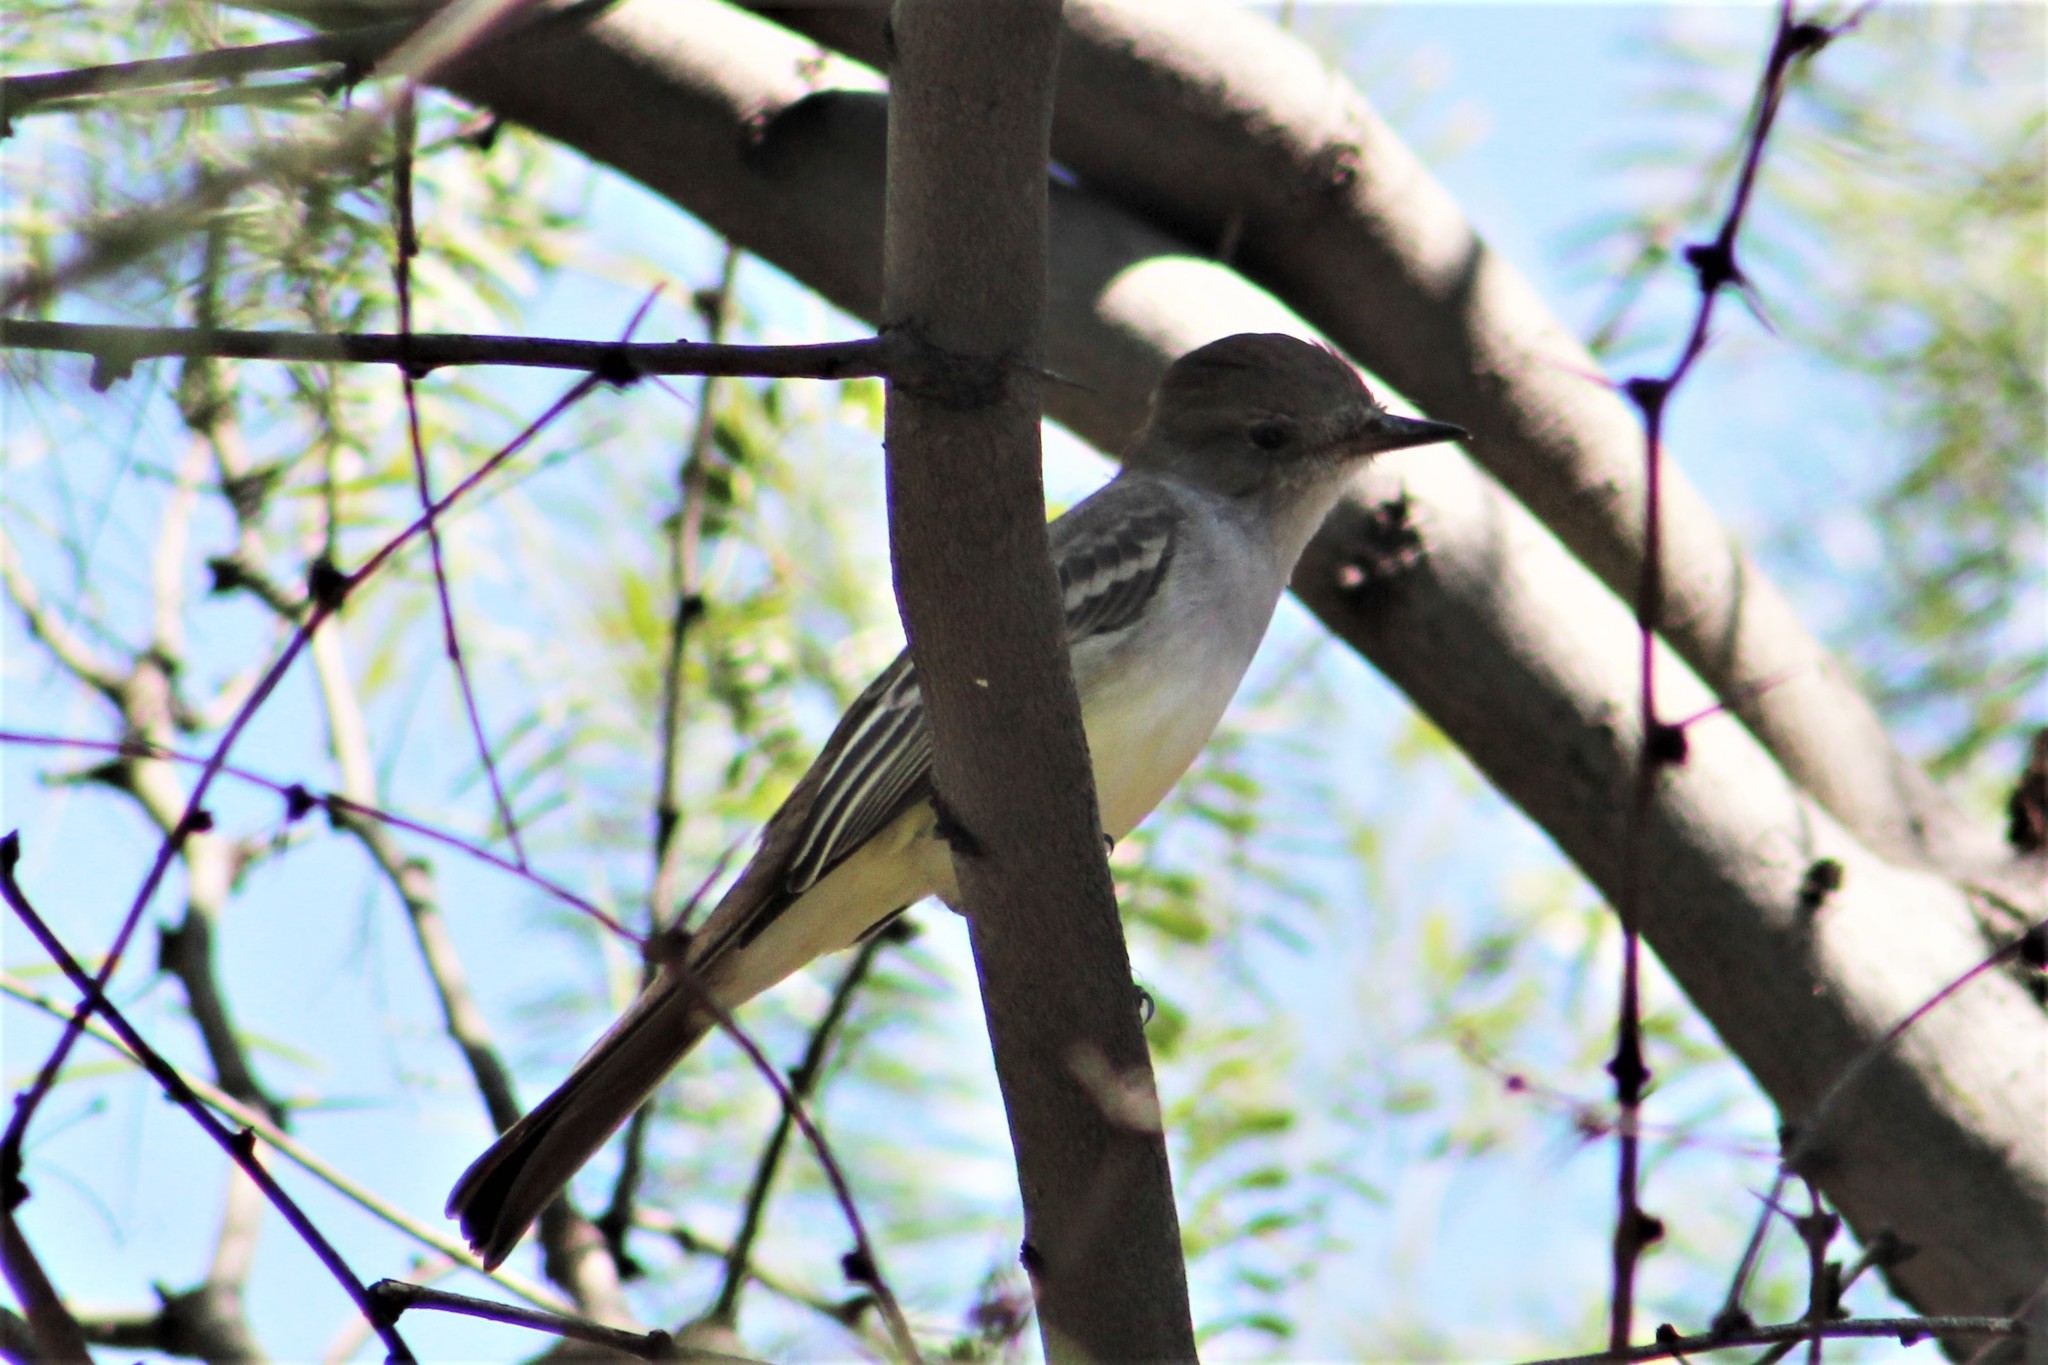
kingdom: Animalia
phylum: Chordata
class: Aves
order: Passeriformes
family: Tyrannidae
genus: Myiarchus
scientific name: Myiarchus cinerascens
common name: Ash-throated flycatcher
